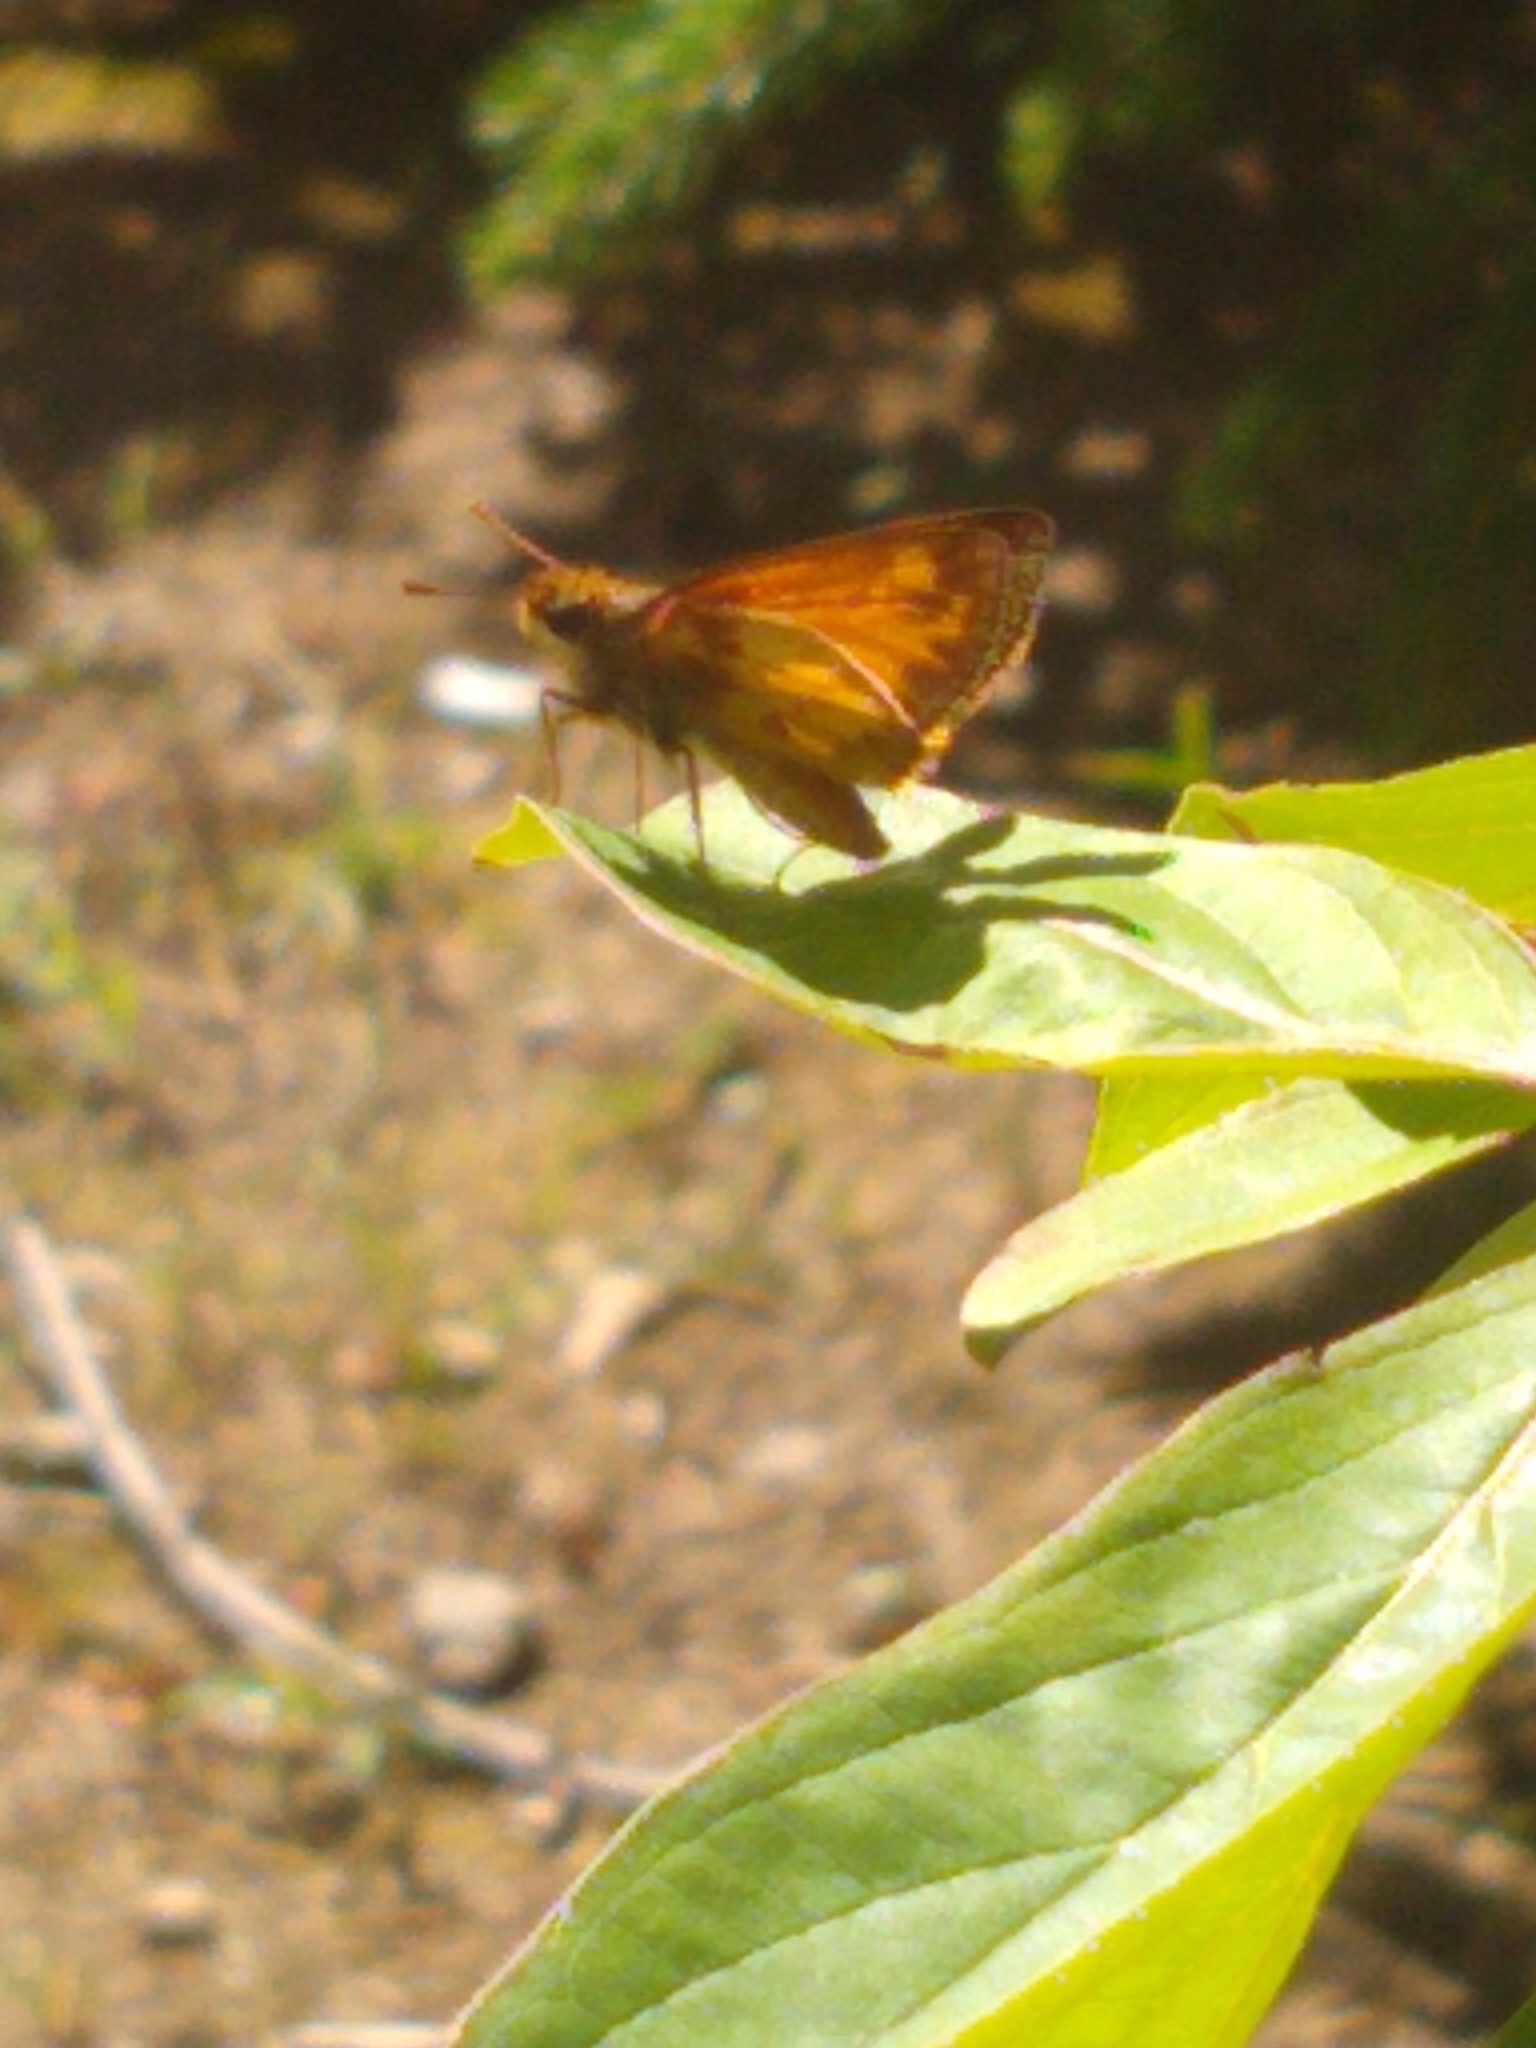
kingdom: Animalia
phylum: Arthropoda
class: Insecta
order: Lepidoptera
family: Hesperiidae
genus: Lon
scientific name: Lon zabulon
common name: Zabulon skipper
